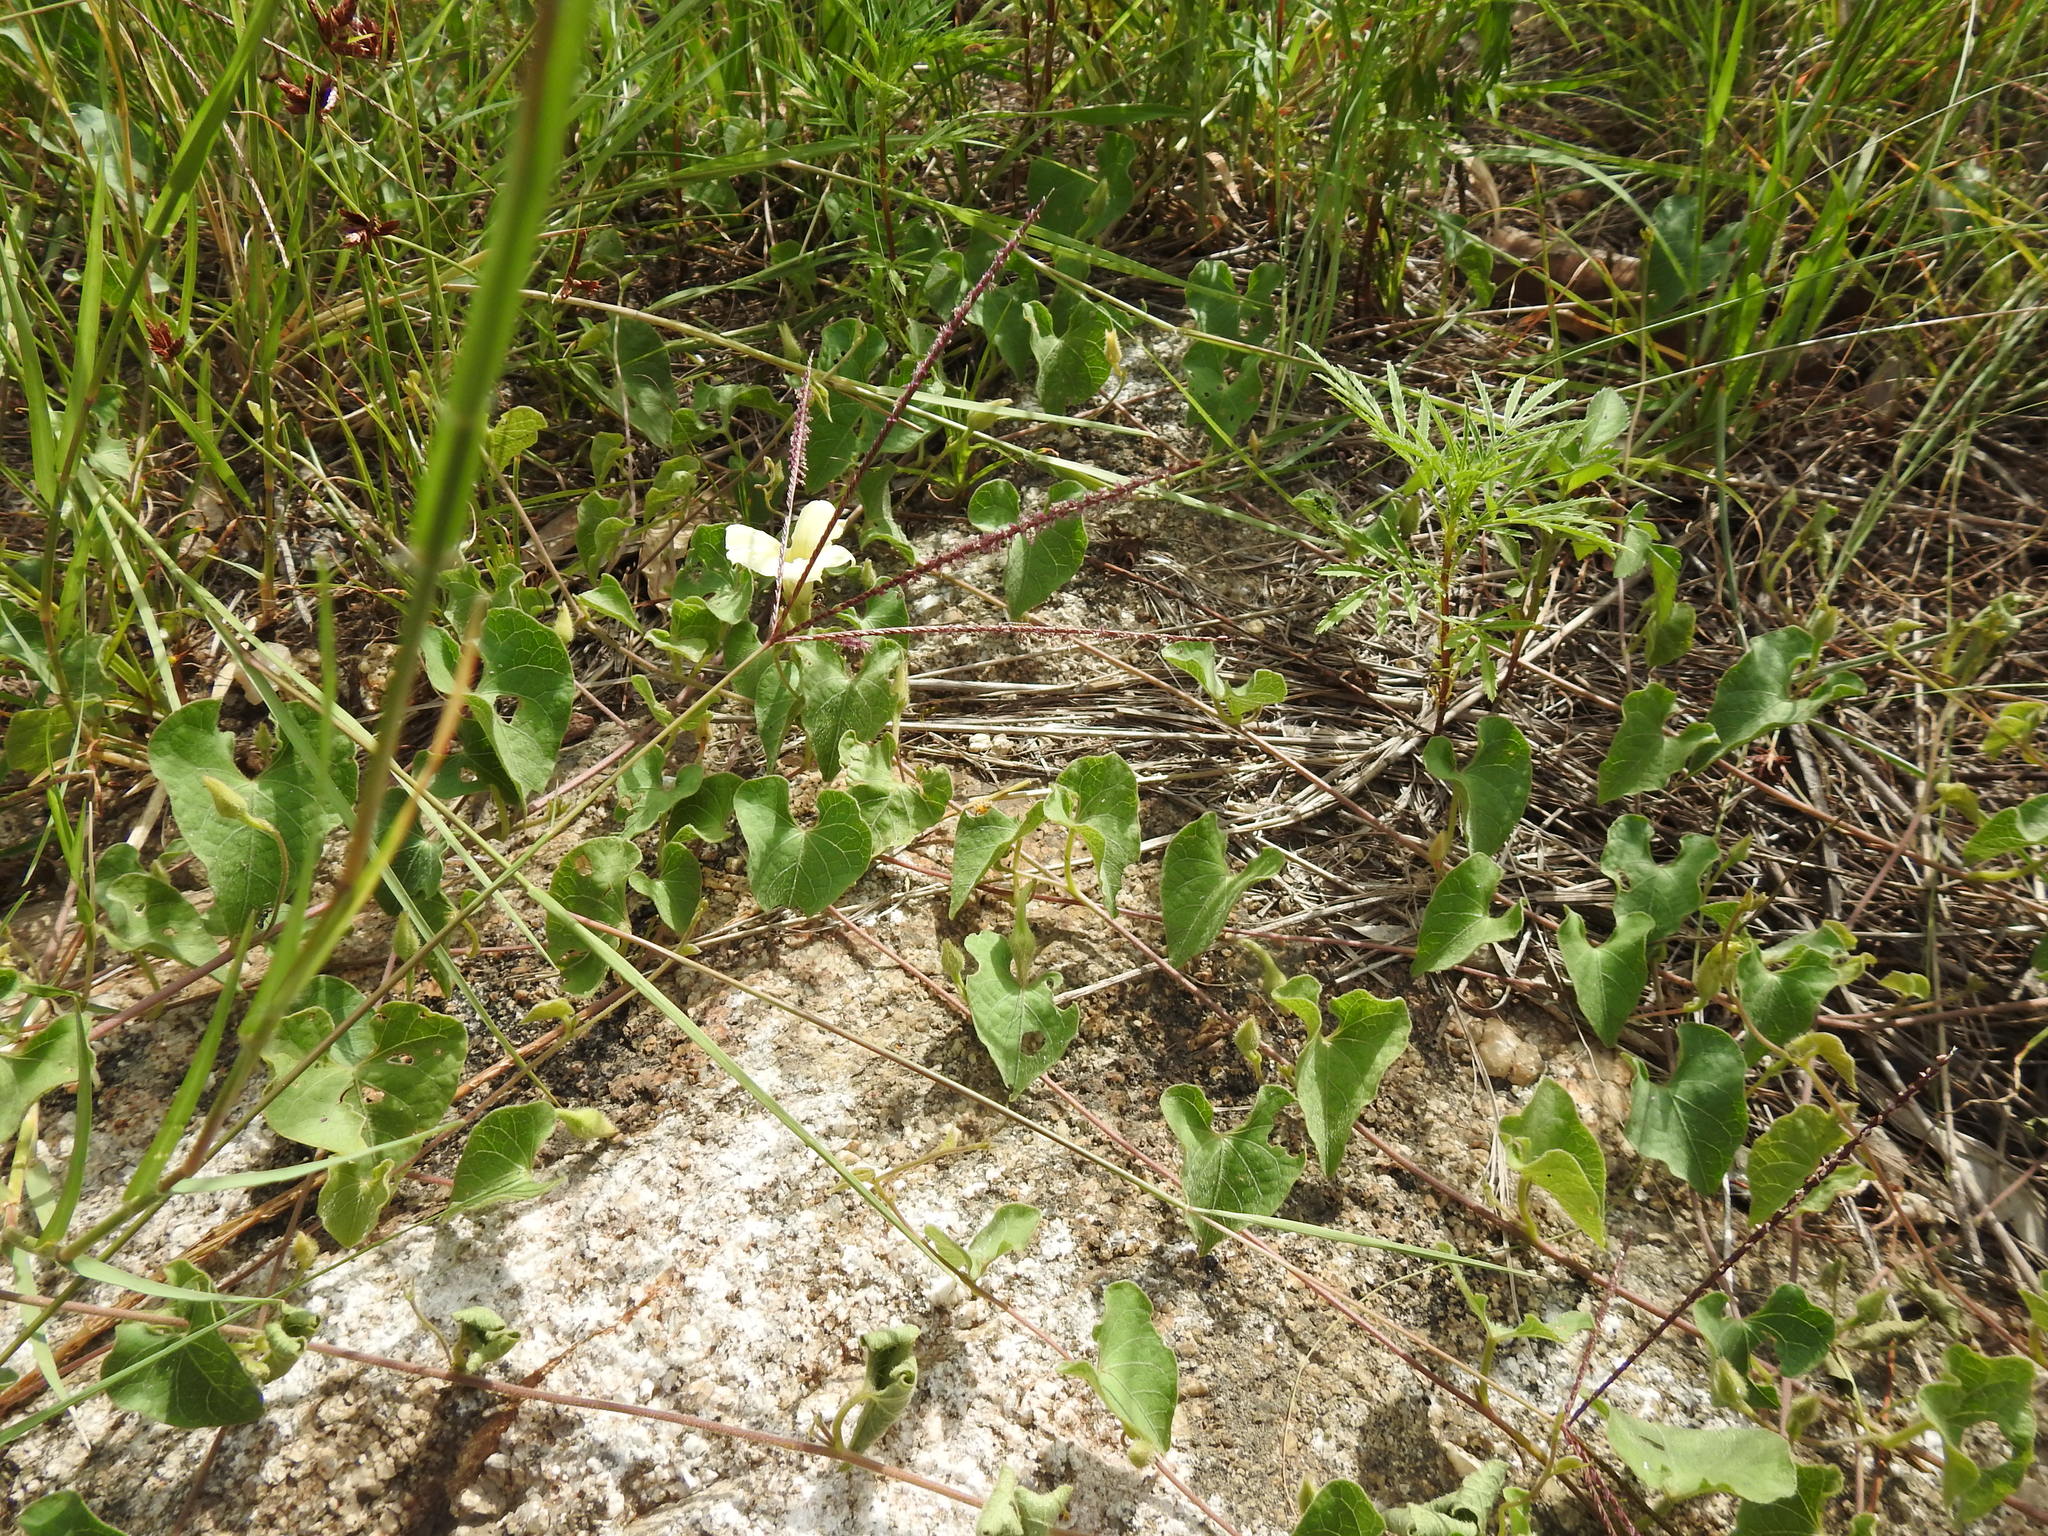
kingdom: Plantae
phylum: Tracheophyta
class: Magnoliopsida
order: Solanales
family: Convolvulaceae
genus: Ipomoea
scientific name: Ipomoea obscura
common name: Obscure morning-glory
